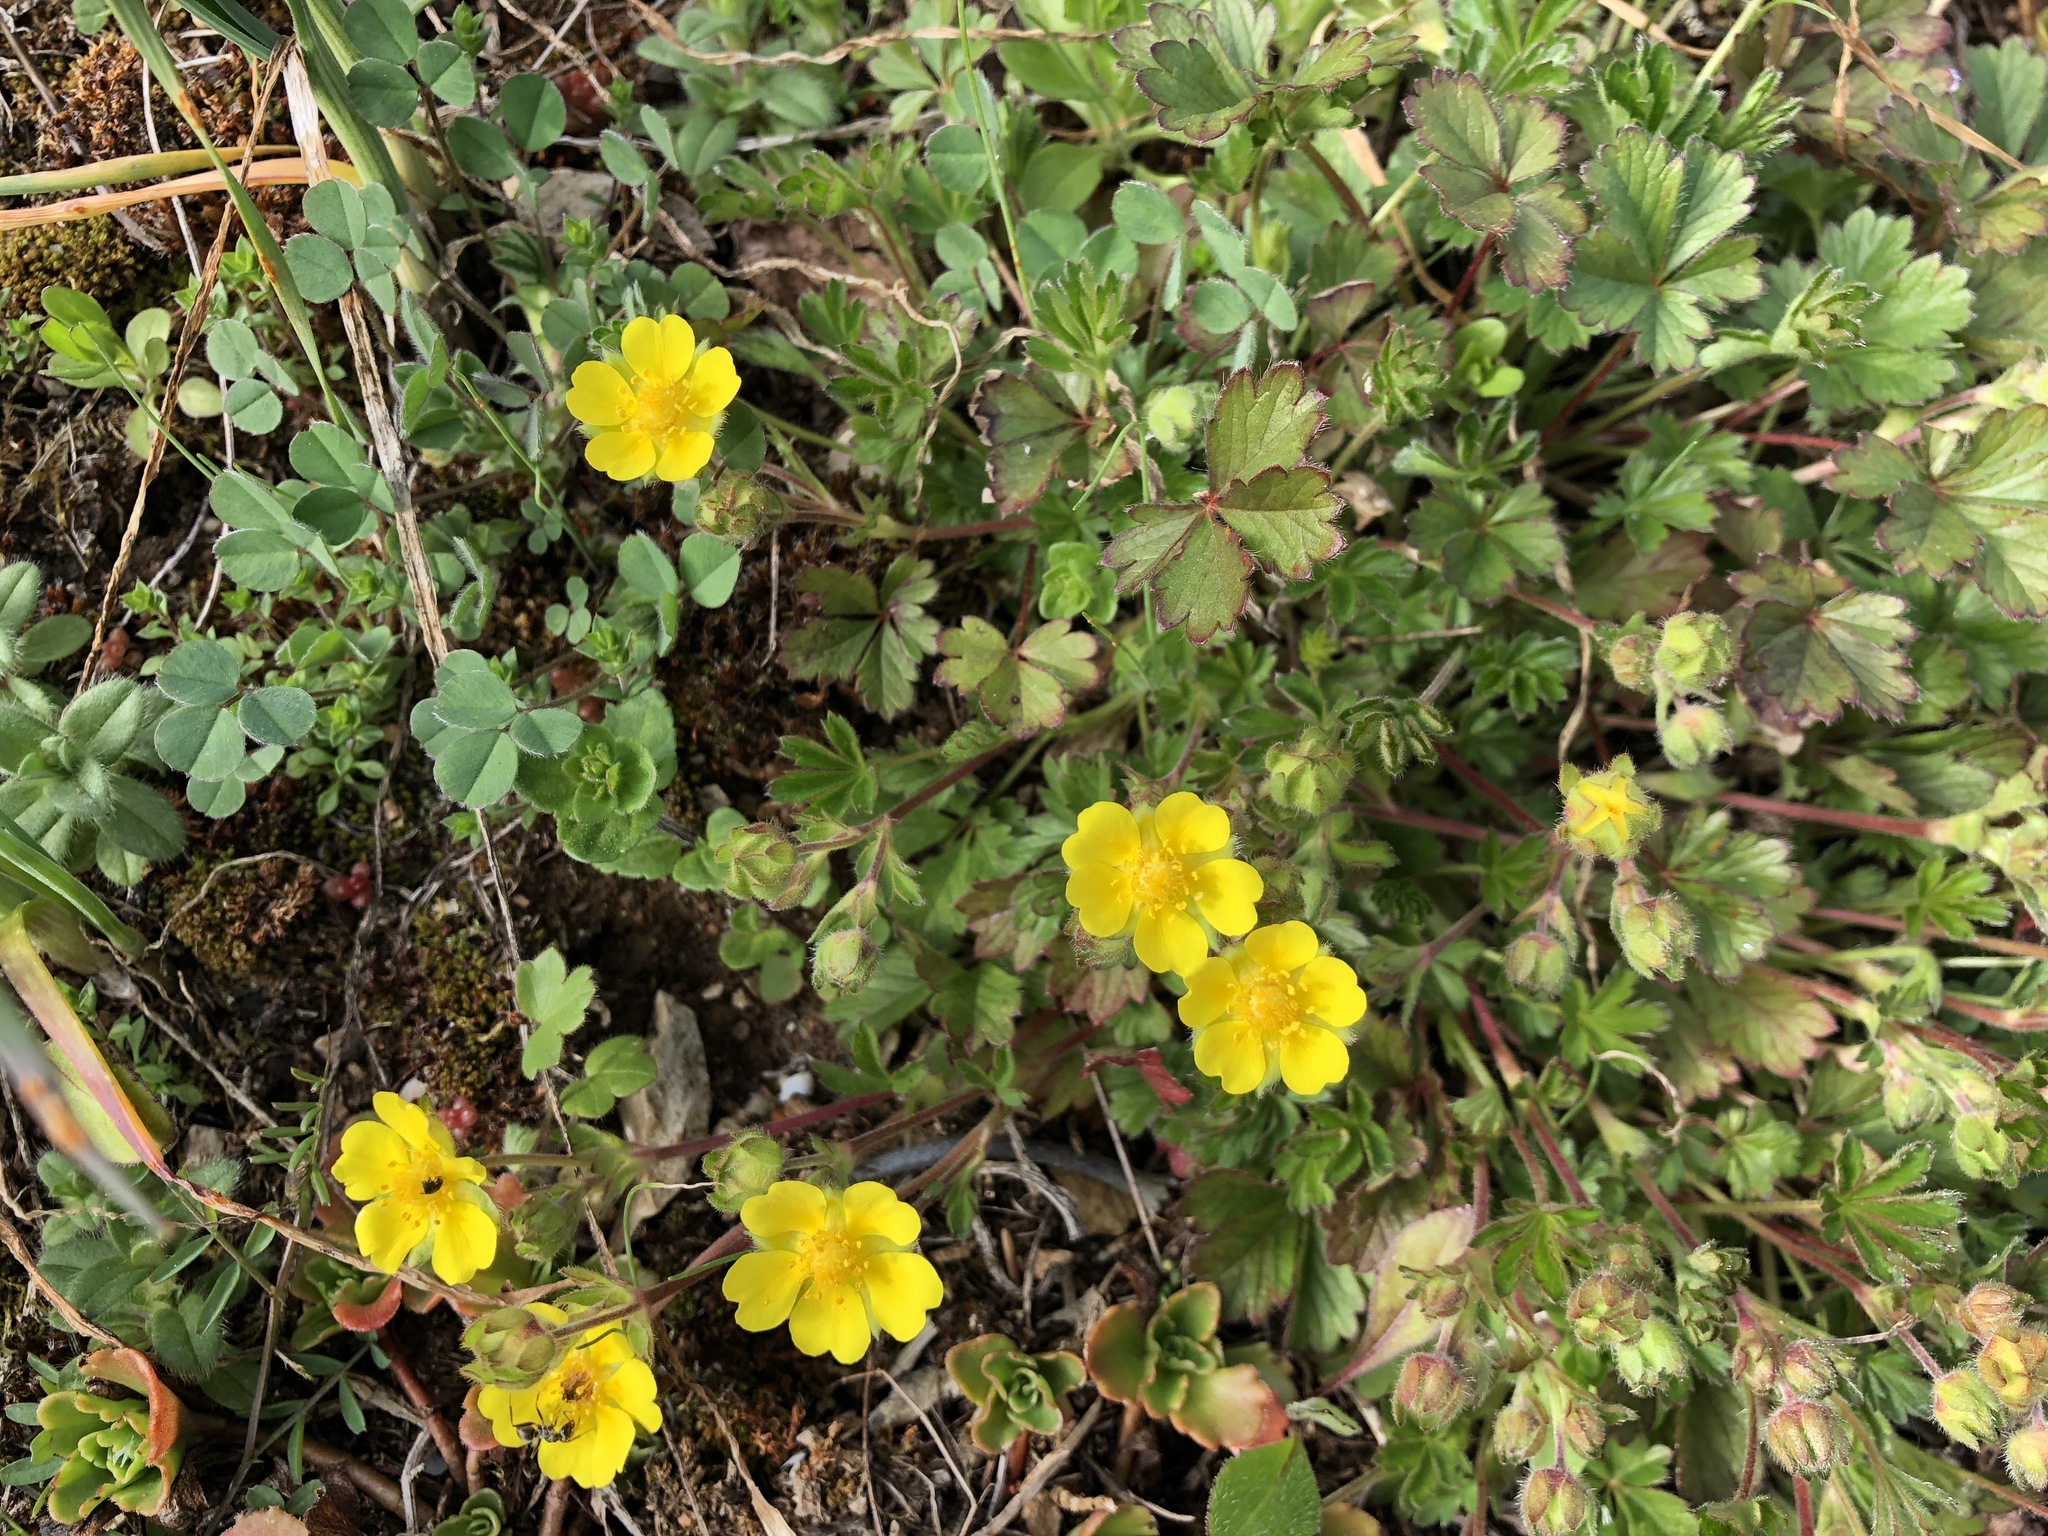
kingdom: Plantae
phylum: Tracheophyta
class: Magnoliopsida
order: Rosales
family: Rosaceae
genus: Potentilla
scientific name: Potentilla verna
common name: Spring cinquefoil
